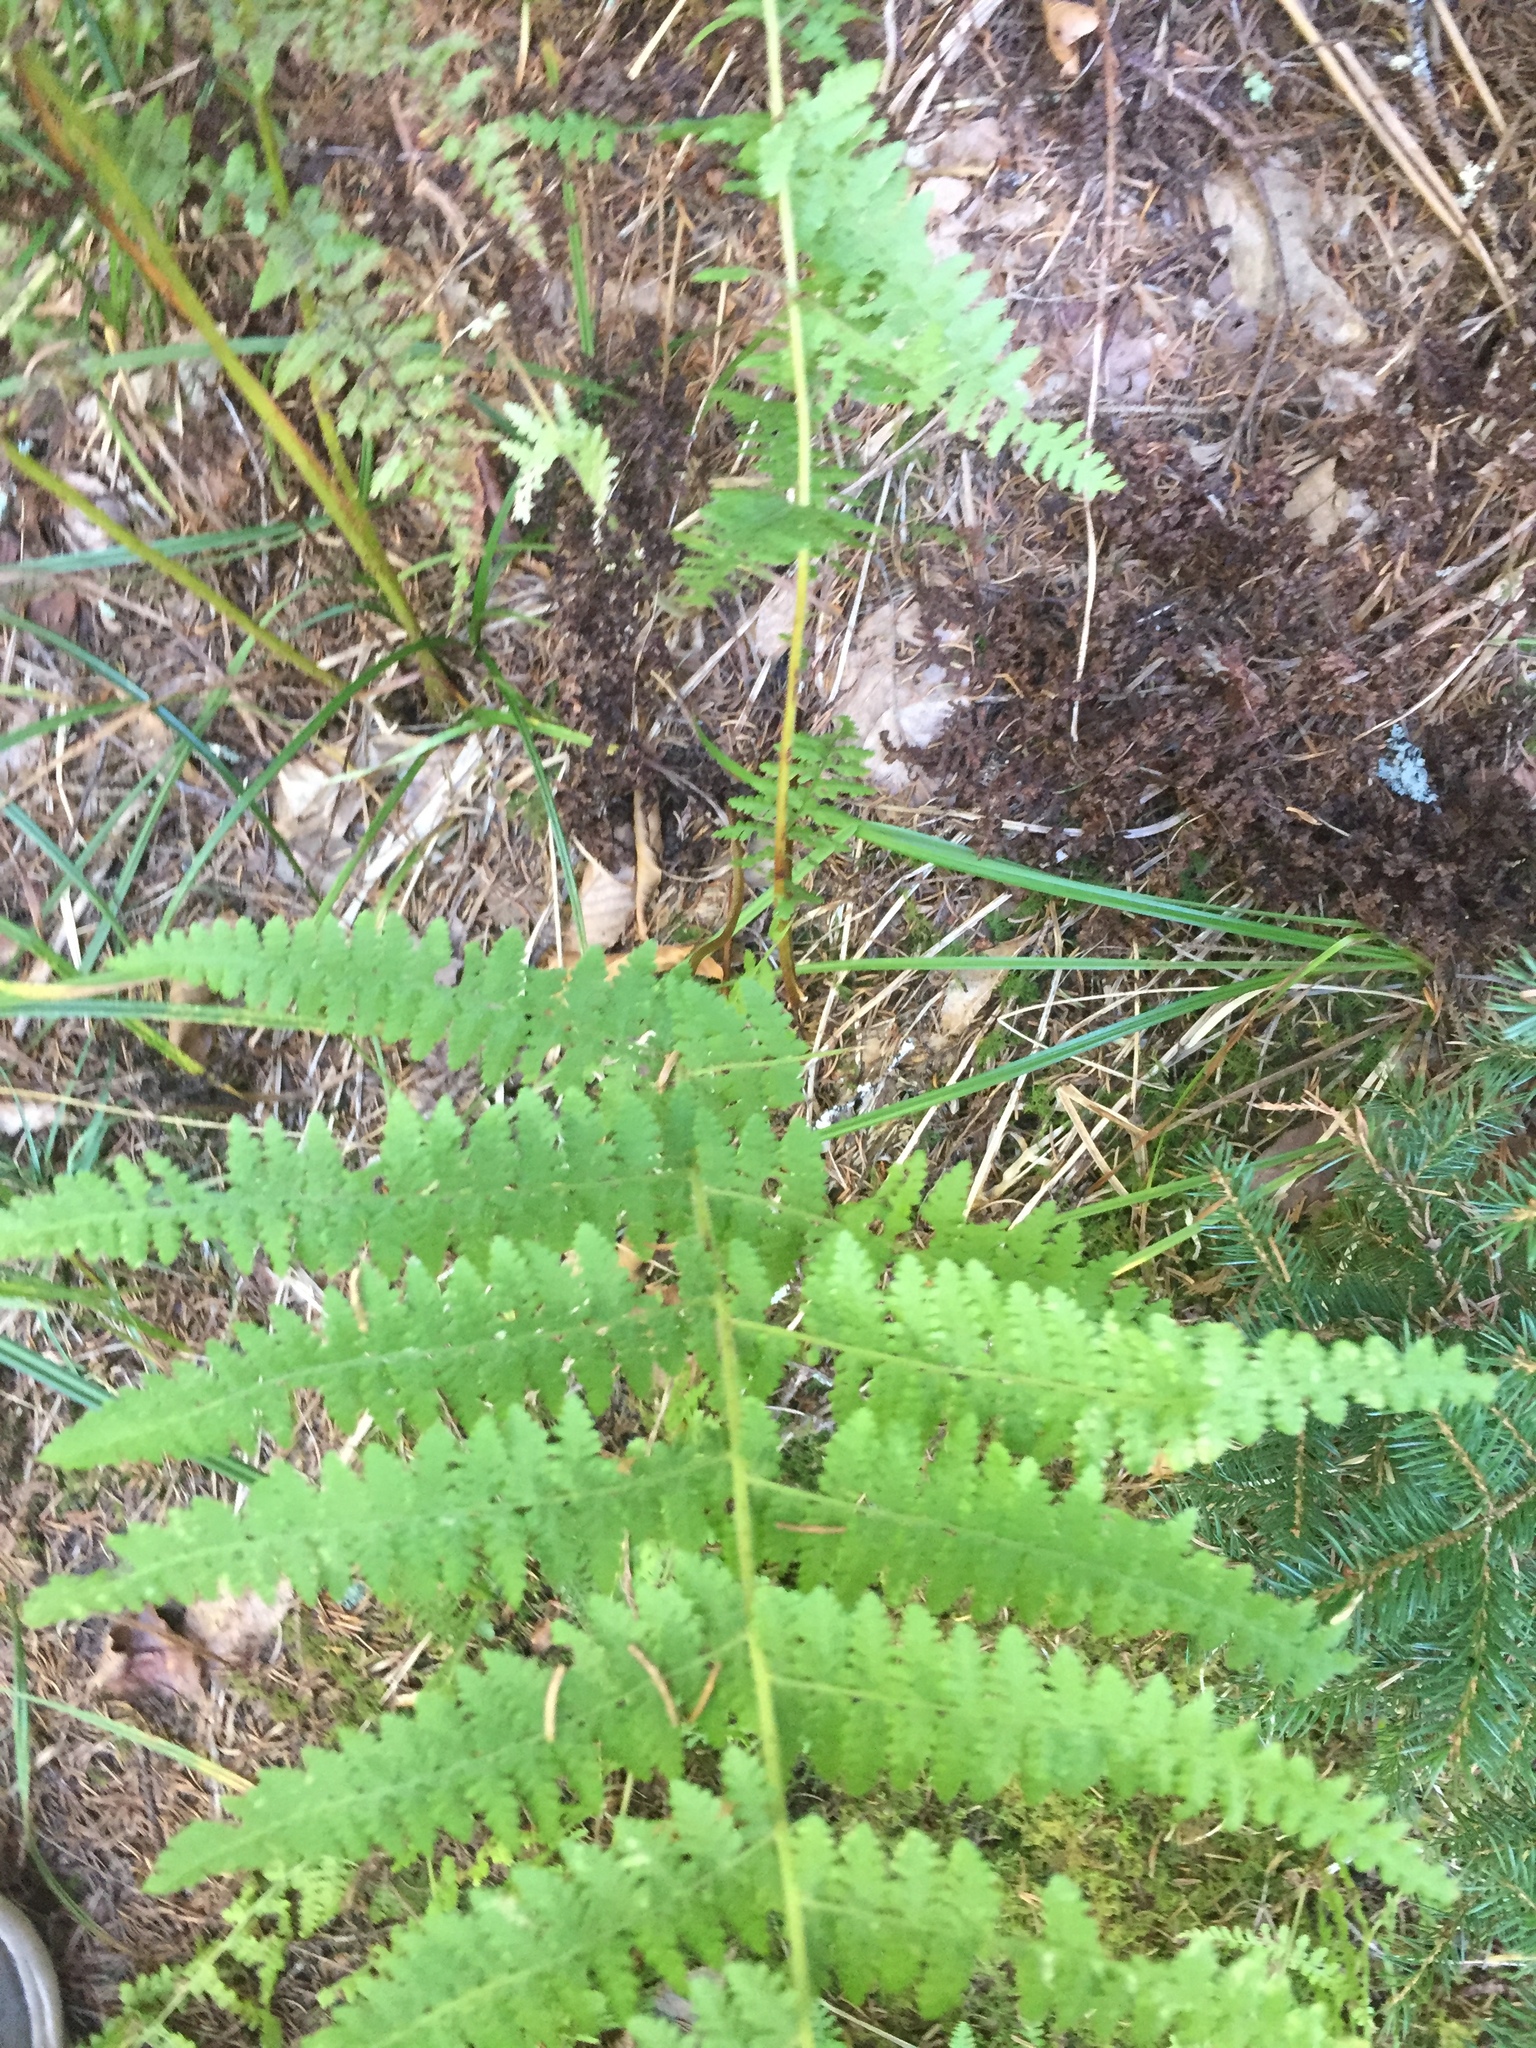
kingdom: Plantae
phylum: Tracheophyta
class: Polypodiopsida
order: Polypodiales
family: Dennstaedtiaceae
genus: Sitobolium
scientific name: Sitobolium punctilobum
